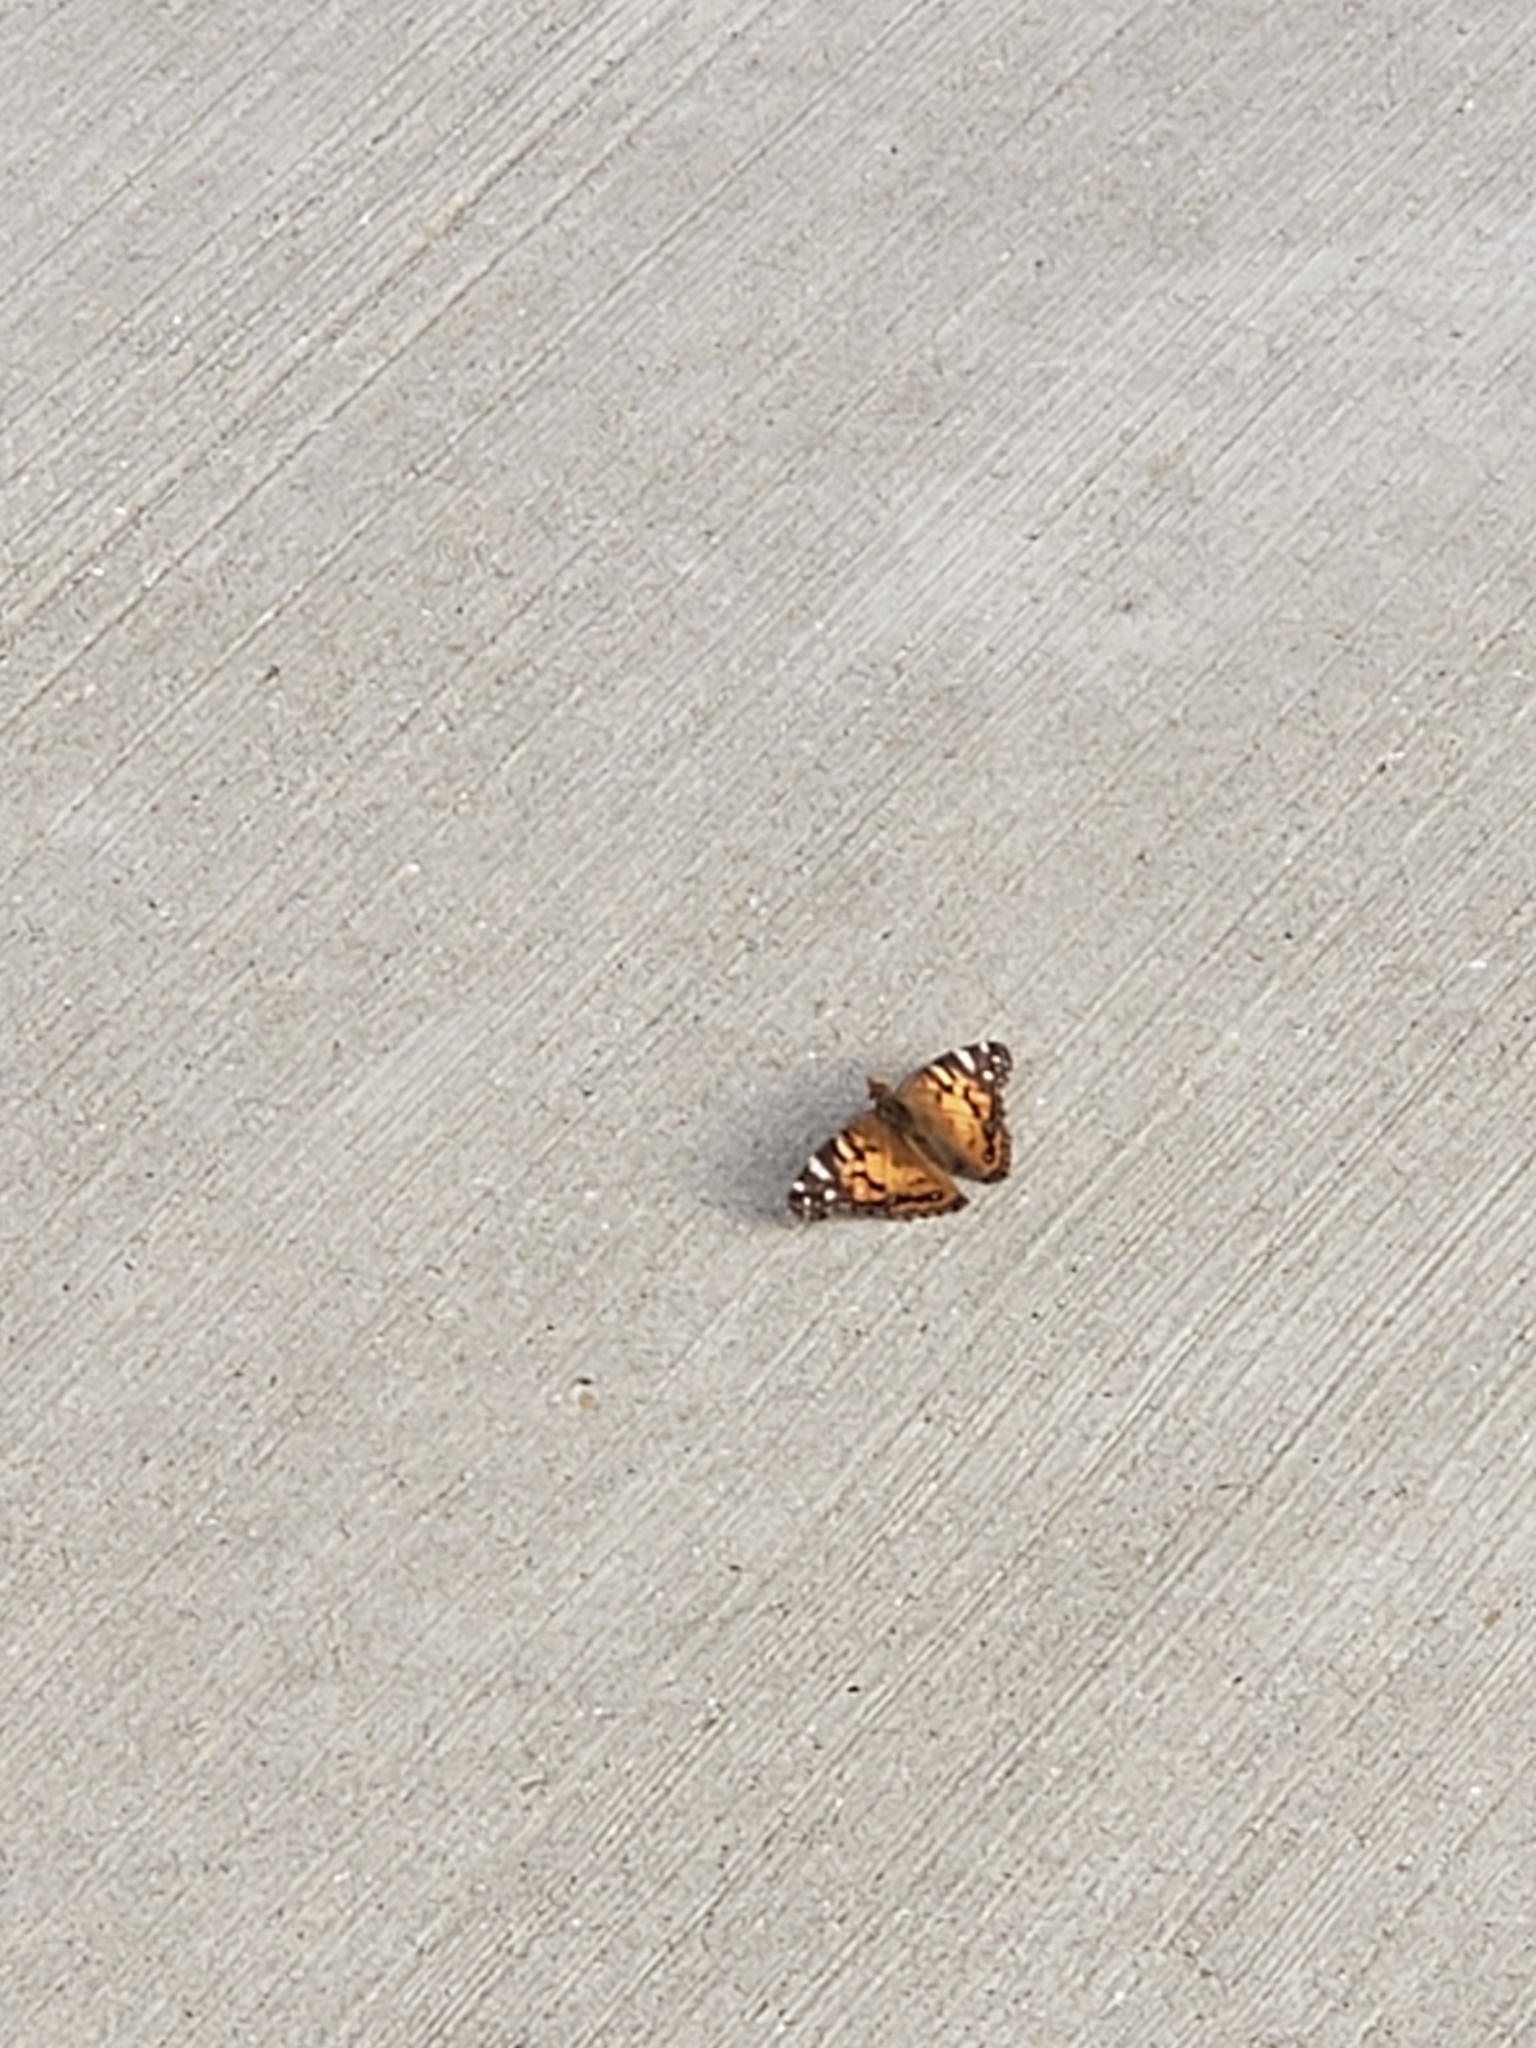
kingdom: Animalia
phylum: Arthropoda
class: Insecta
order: Lepidoptera
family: Nymphalidae
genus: Vanessa
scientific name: Vanessa virginiensis
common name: American lady
